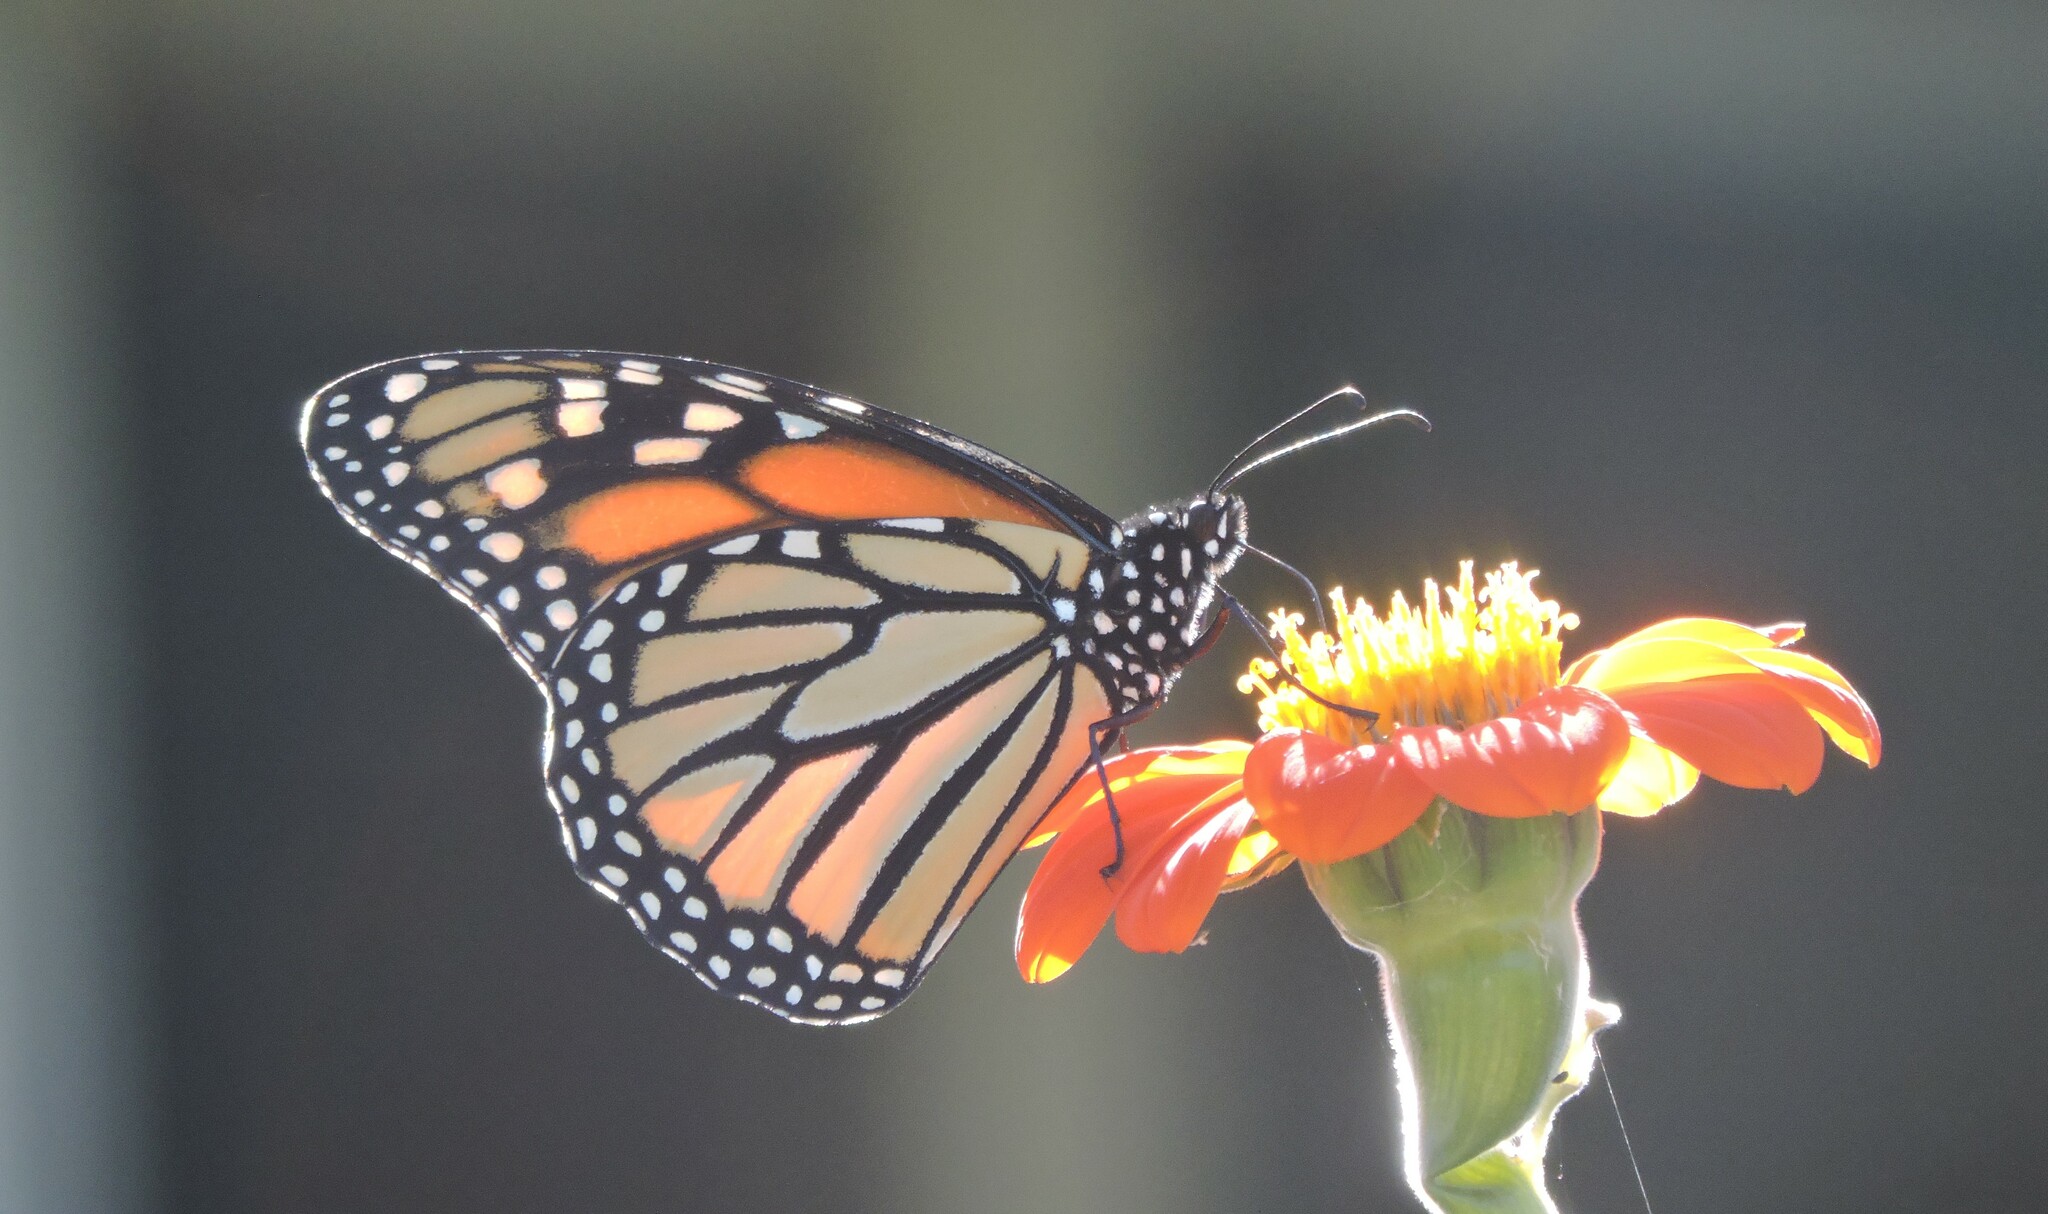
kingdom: Animalia
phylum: Arthropoda
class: Insecta
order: Lepidoptera
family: Nymphalidae
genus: Danaus
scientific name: Danaus plexippus
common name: Monarch
